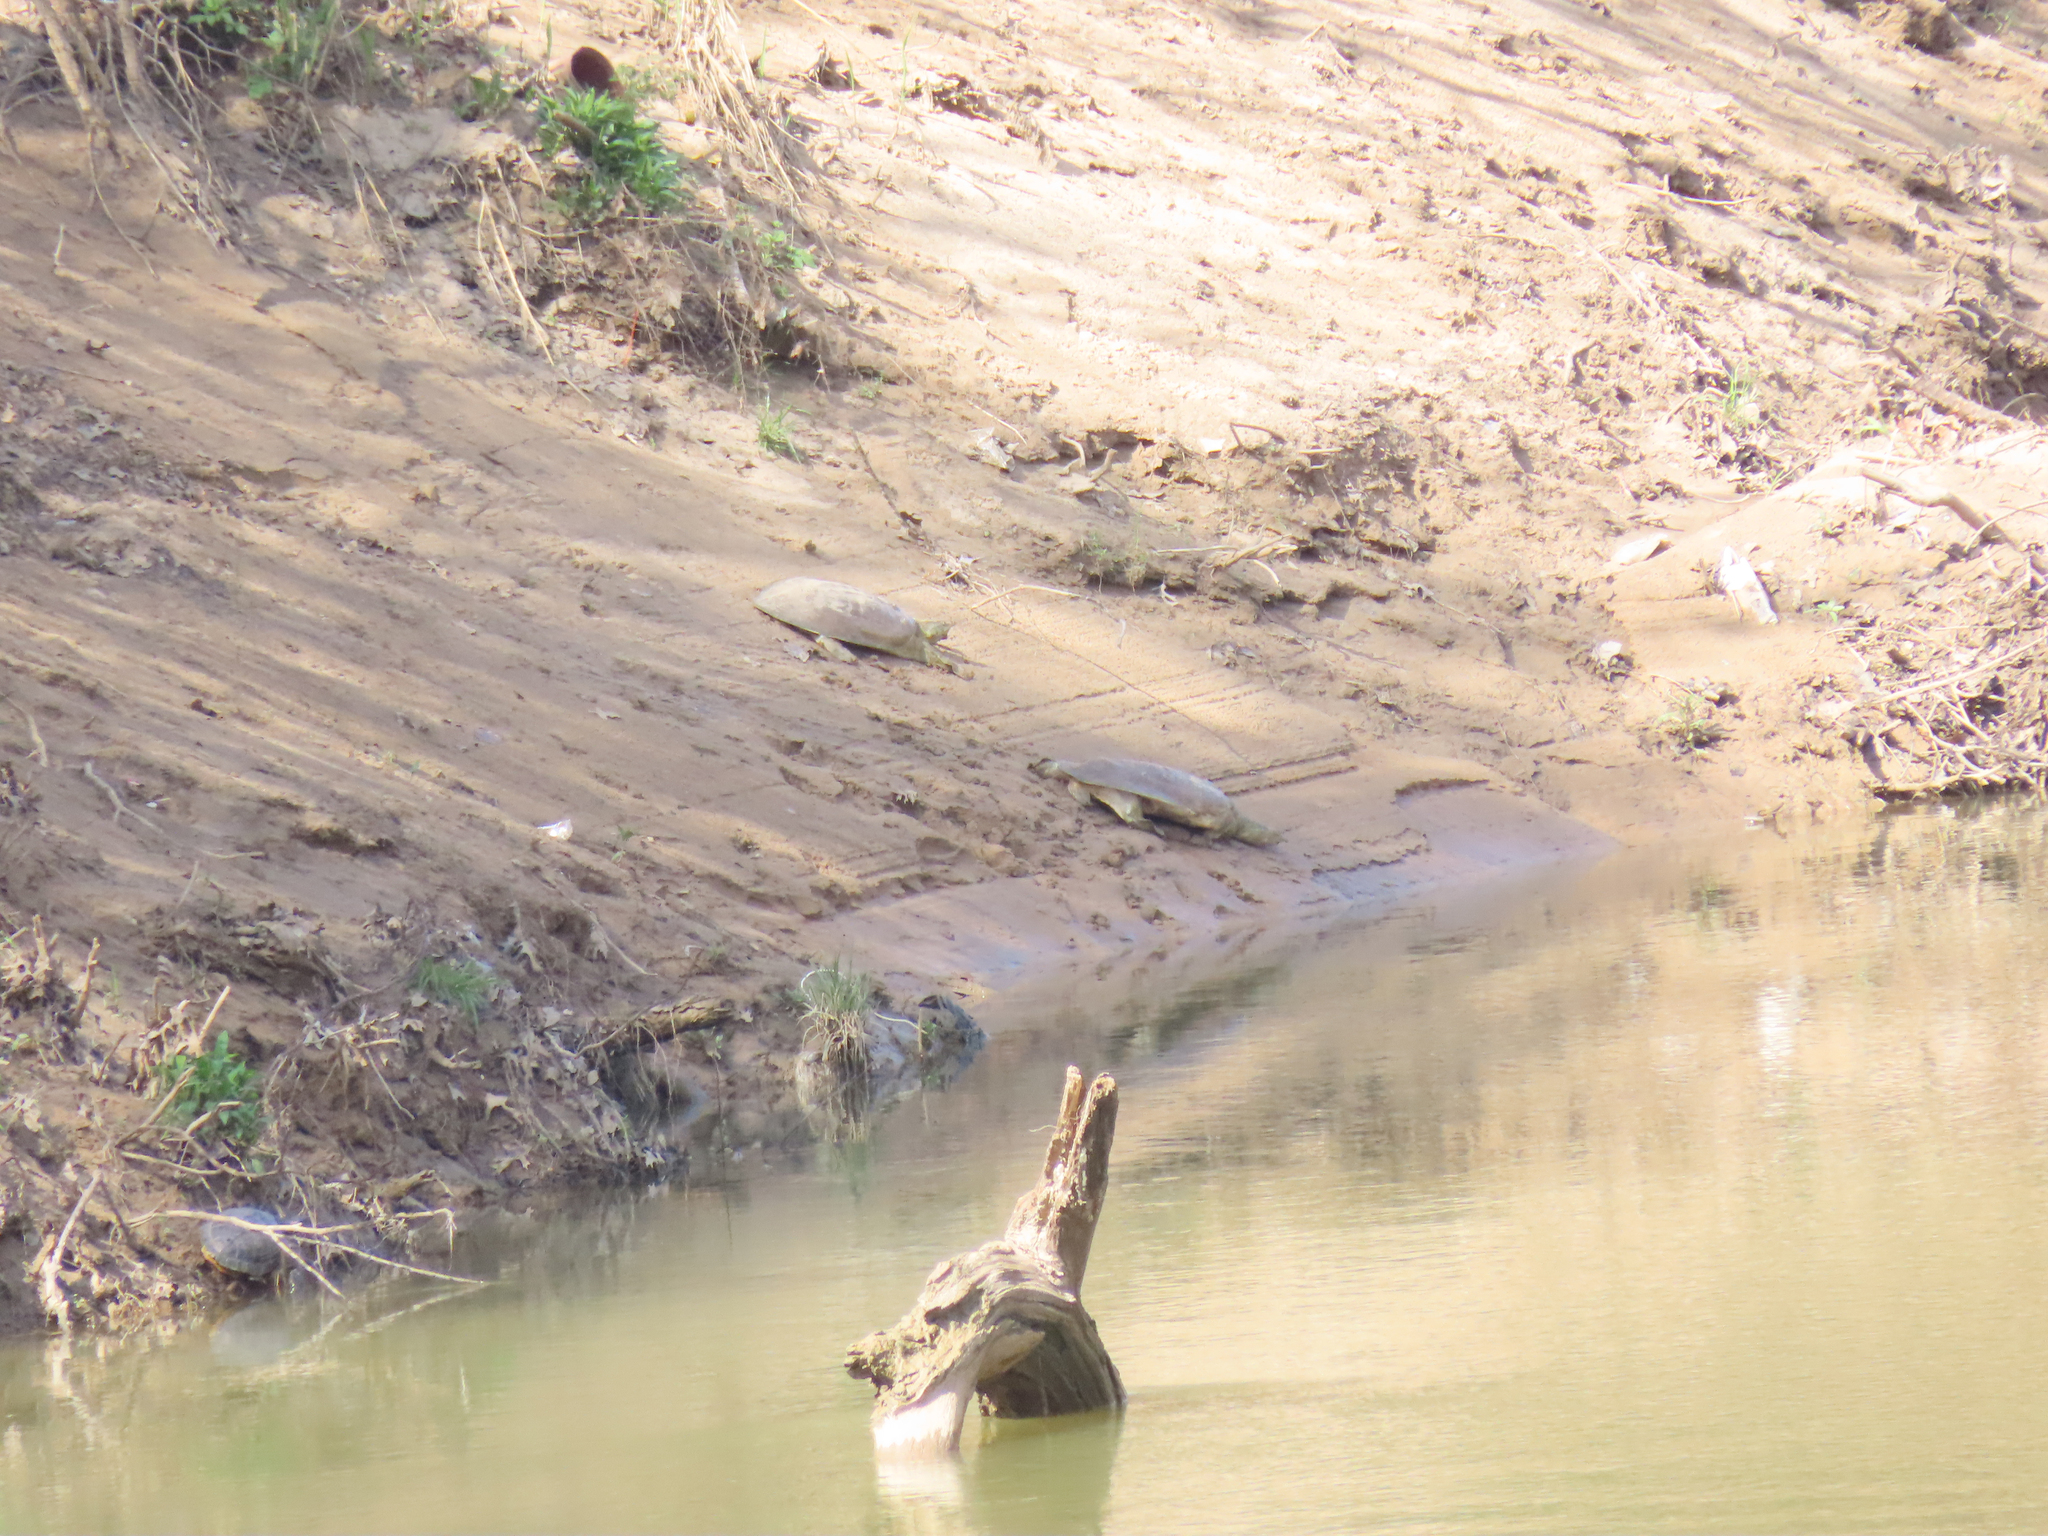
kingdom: Animalia
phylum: Chordata
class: Testudines
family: Trionychidae
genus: Apalone
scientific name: Apalone spinifera
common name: Spiny softshell turtle
